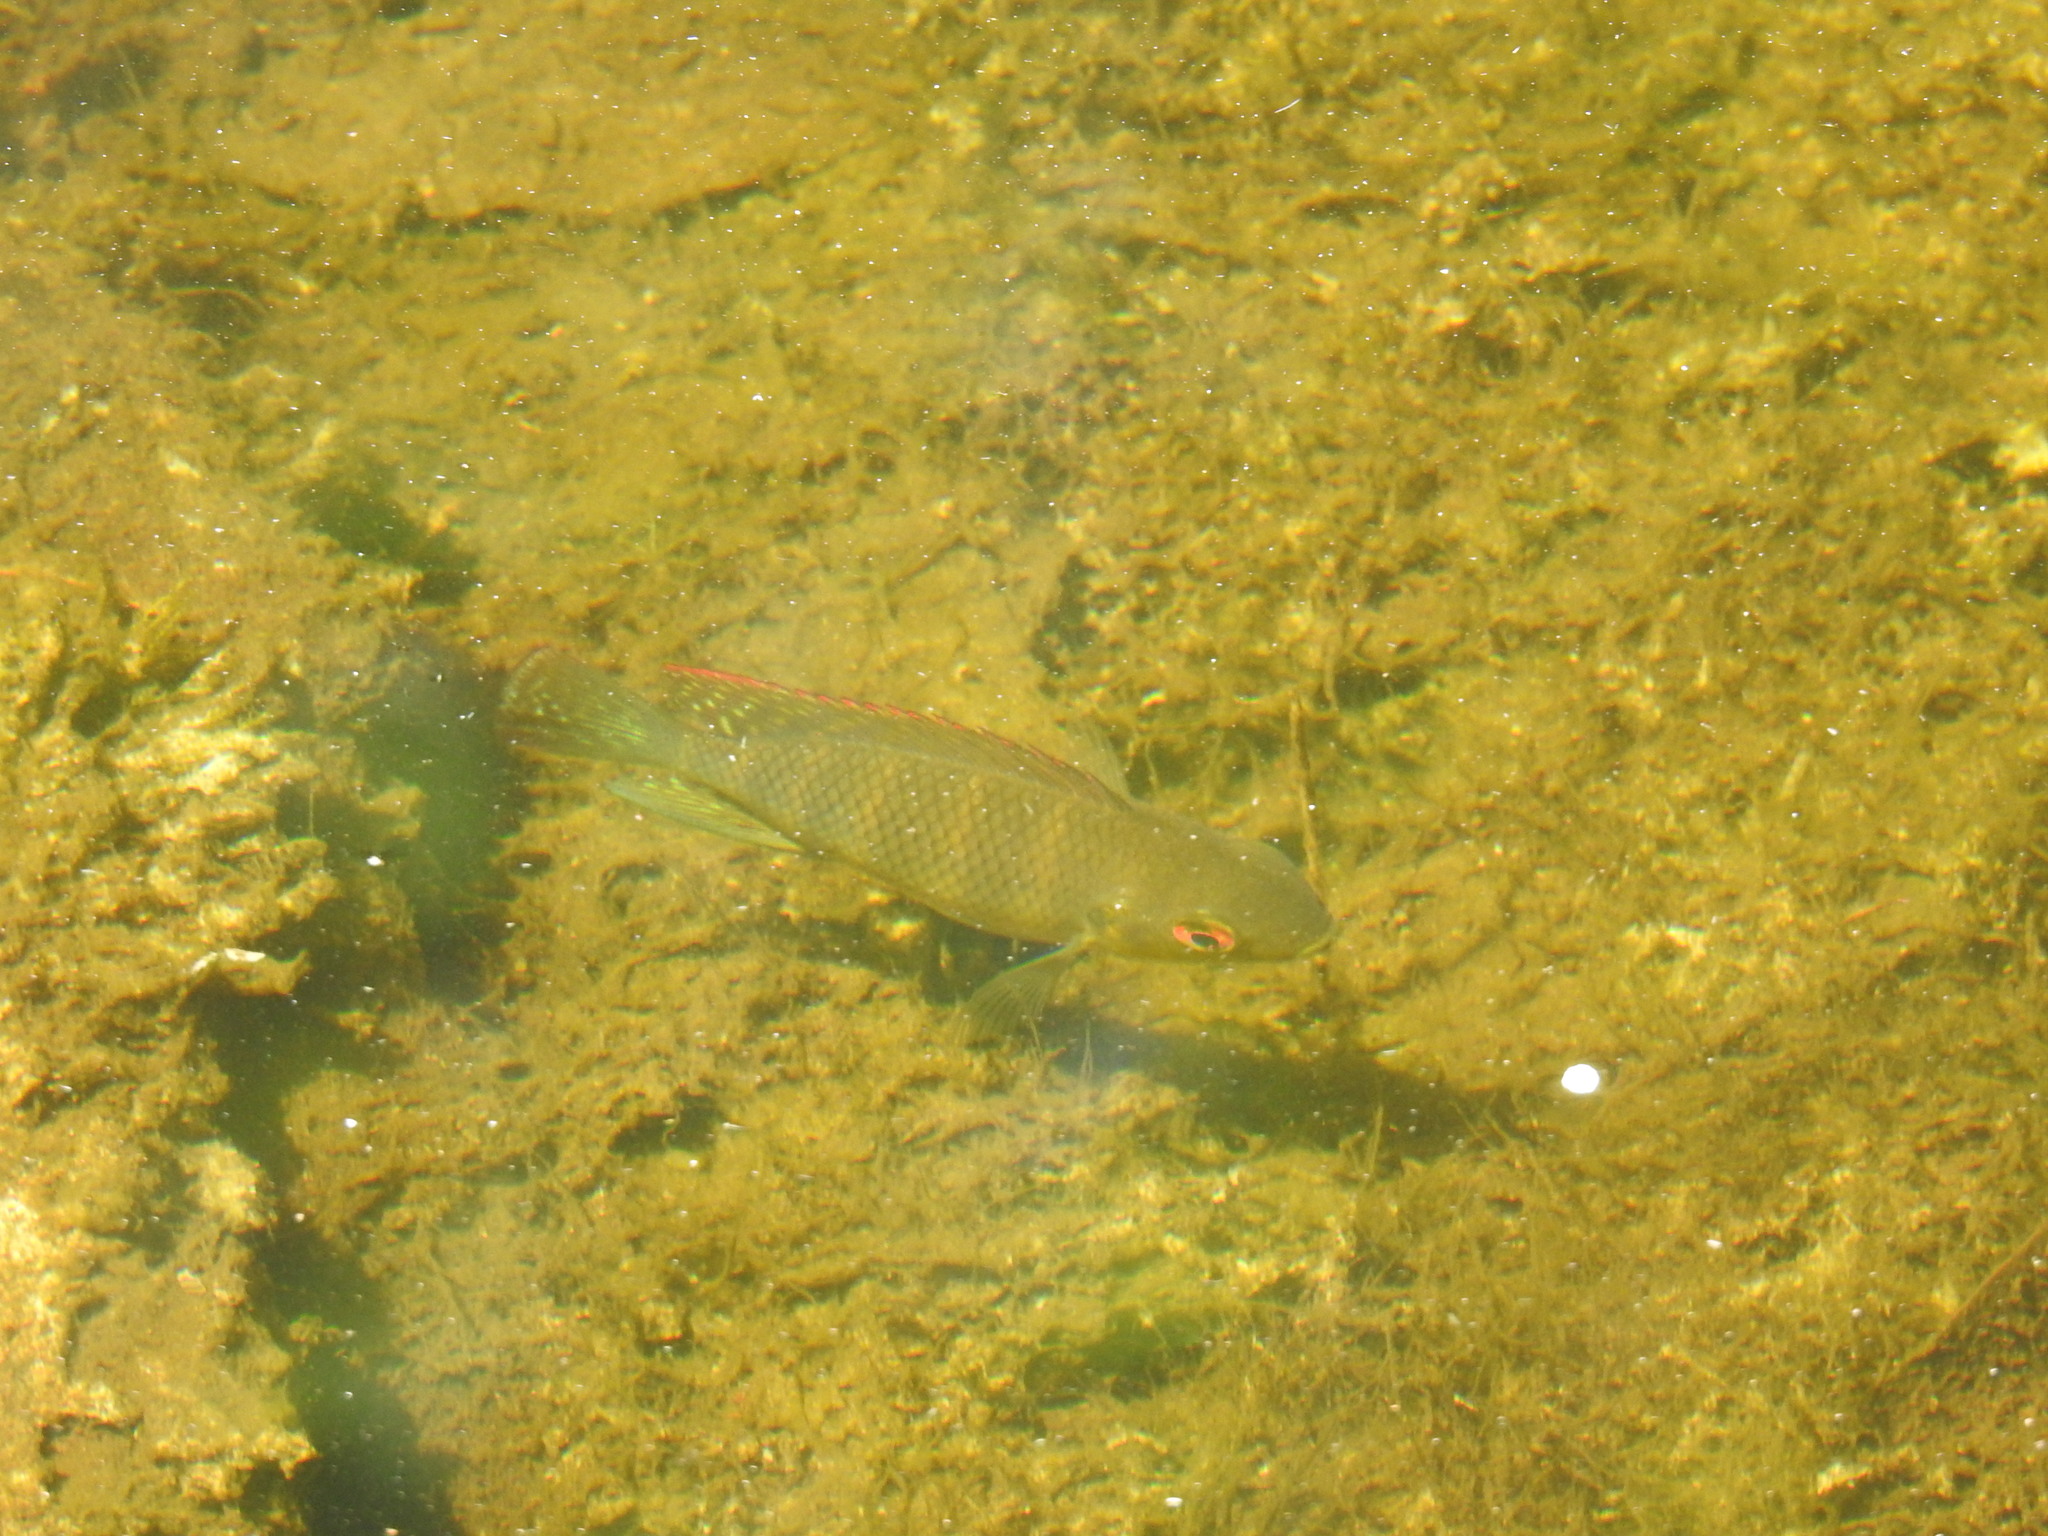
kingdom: Animalia
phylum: Chordata
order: Perciformes
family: Cichlidae
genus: Pelmatolapia
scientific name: Pelmatolapia mariae
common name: Spotted tilapia
